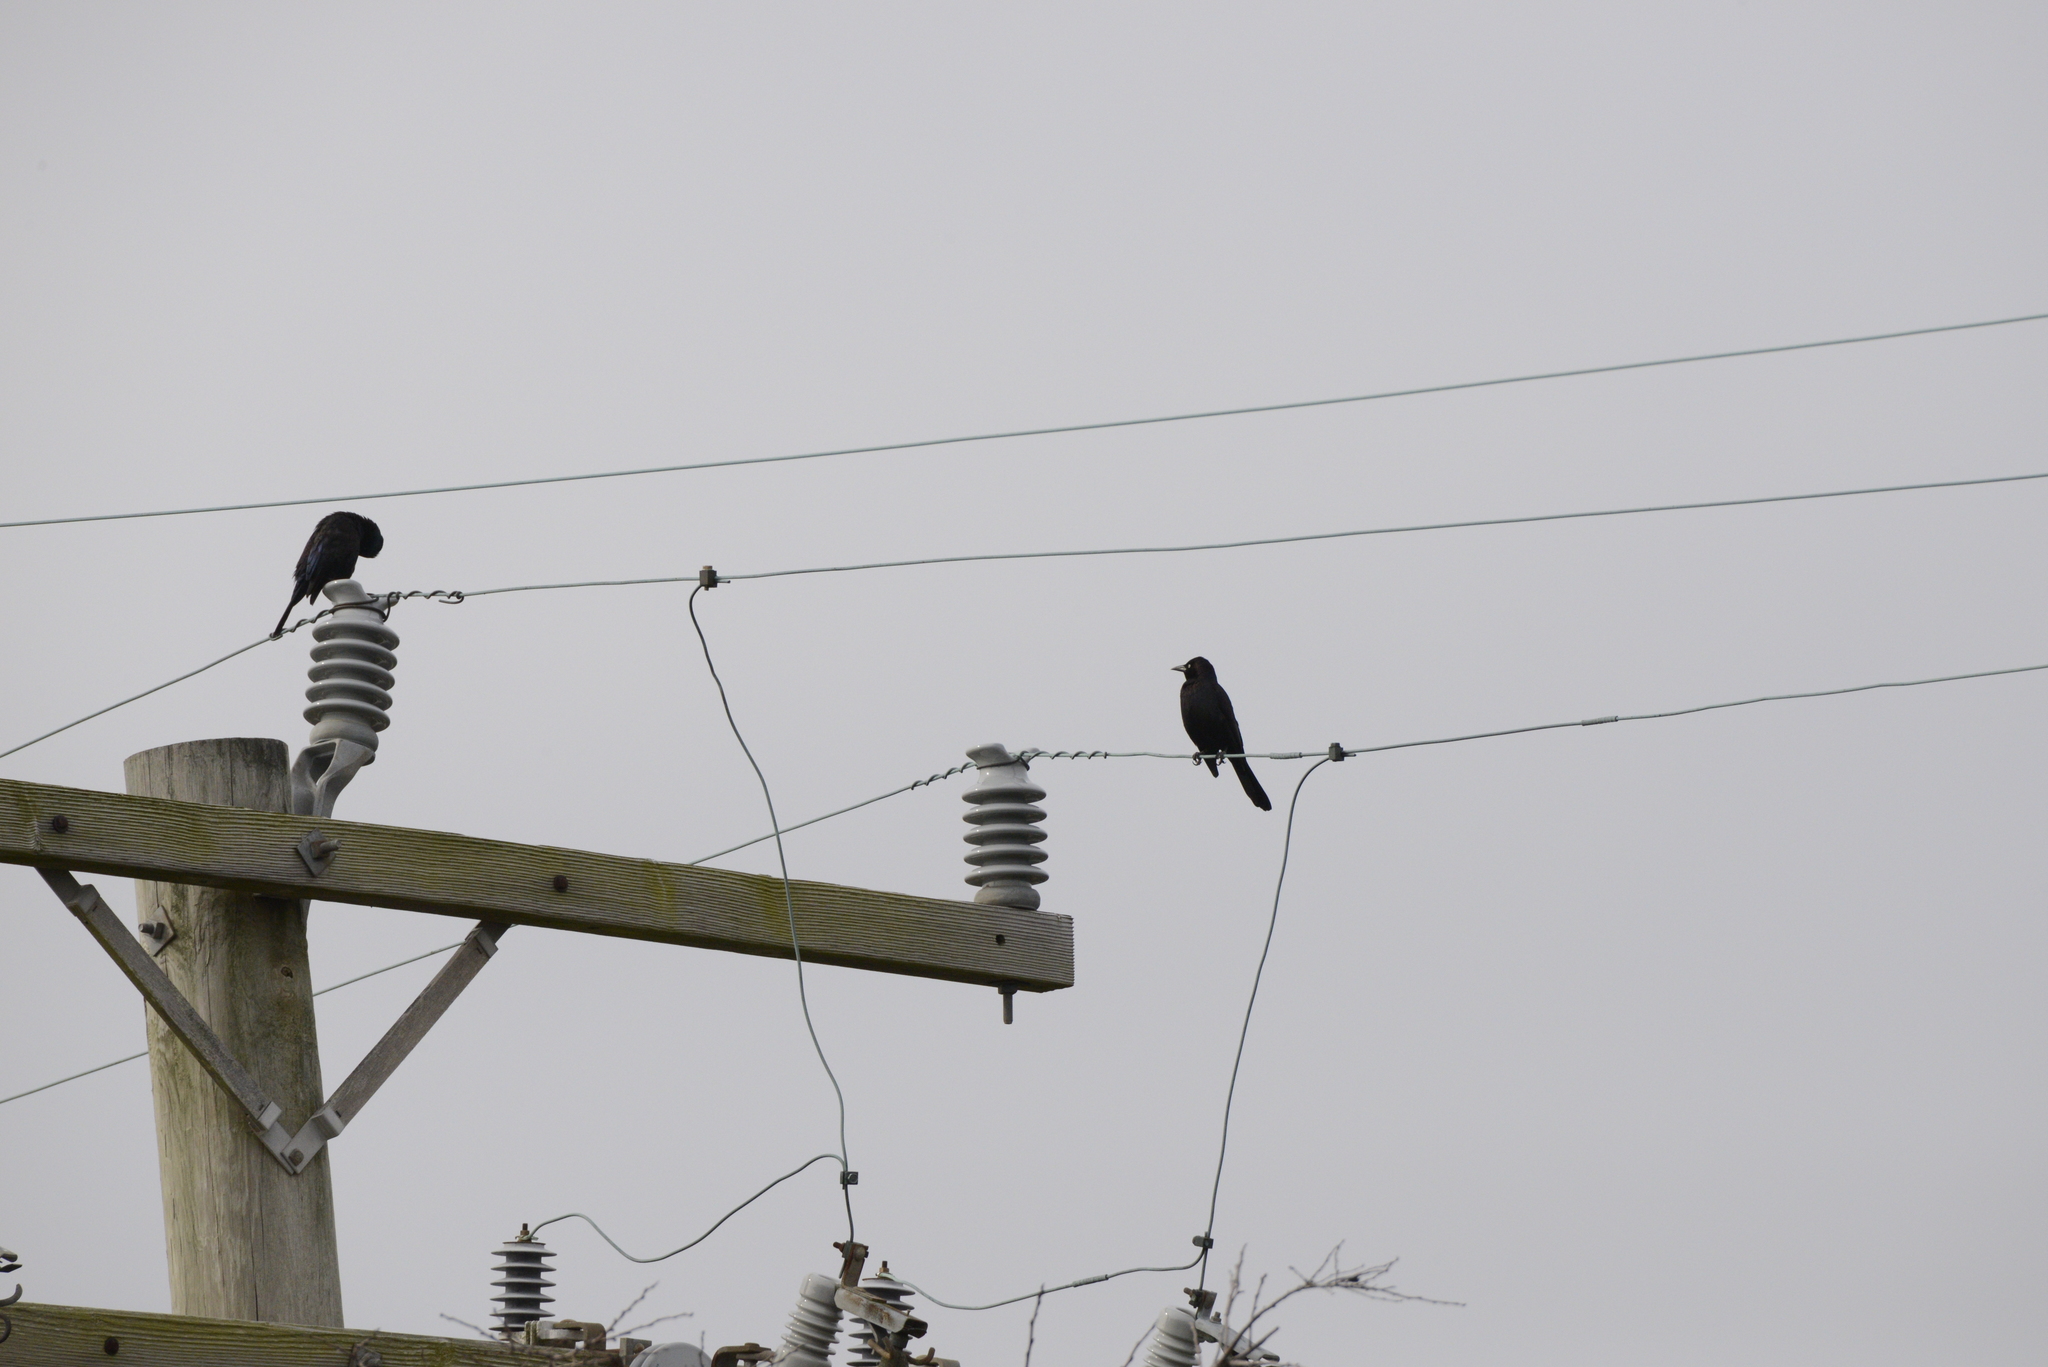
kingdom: Animalia
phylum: Chordata
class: Aves
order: Passeriformes
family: Icteridae
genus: Quiscalus
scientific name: Quiscalus quiscula
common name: Common grackle
